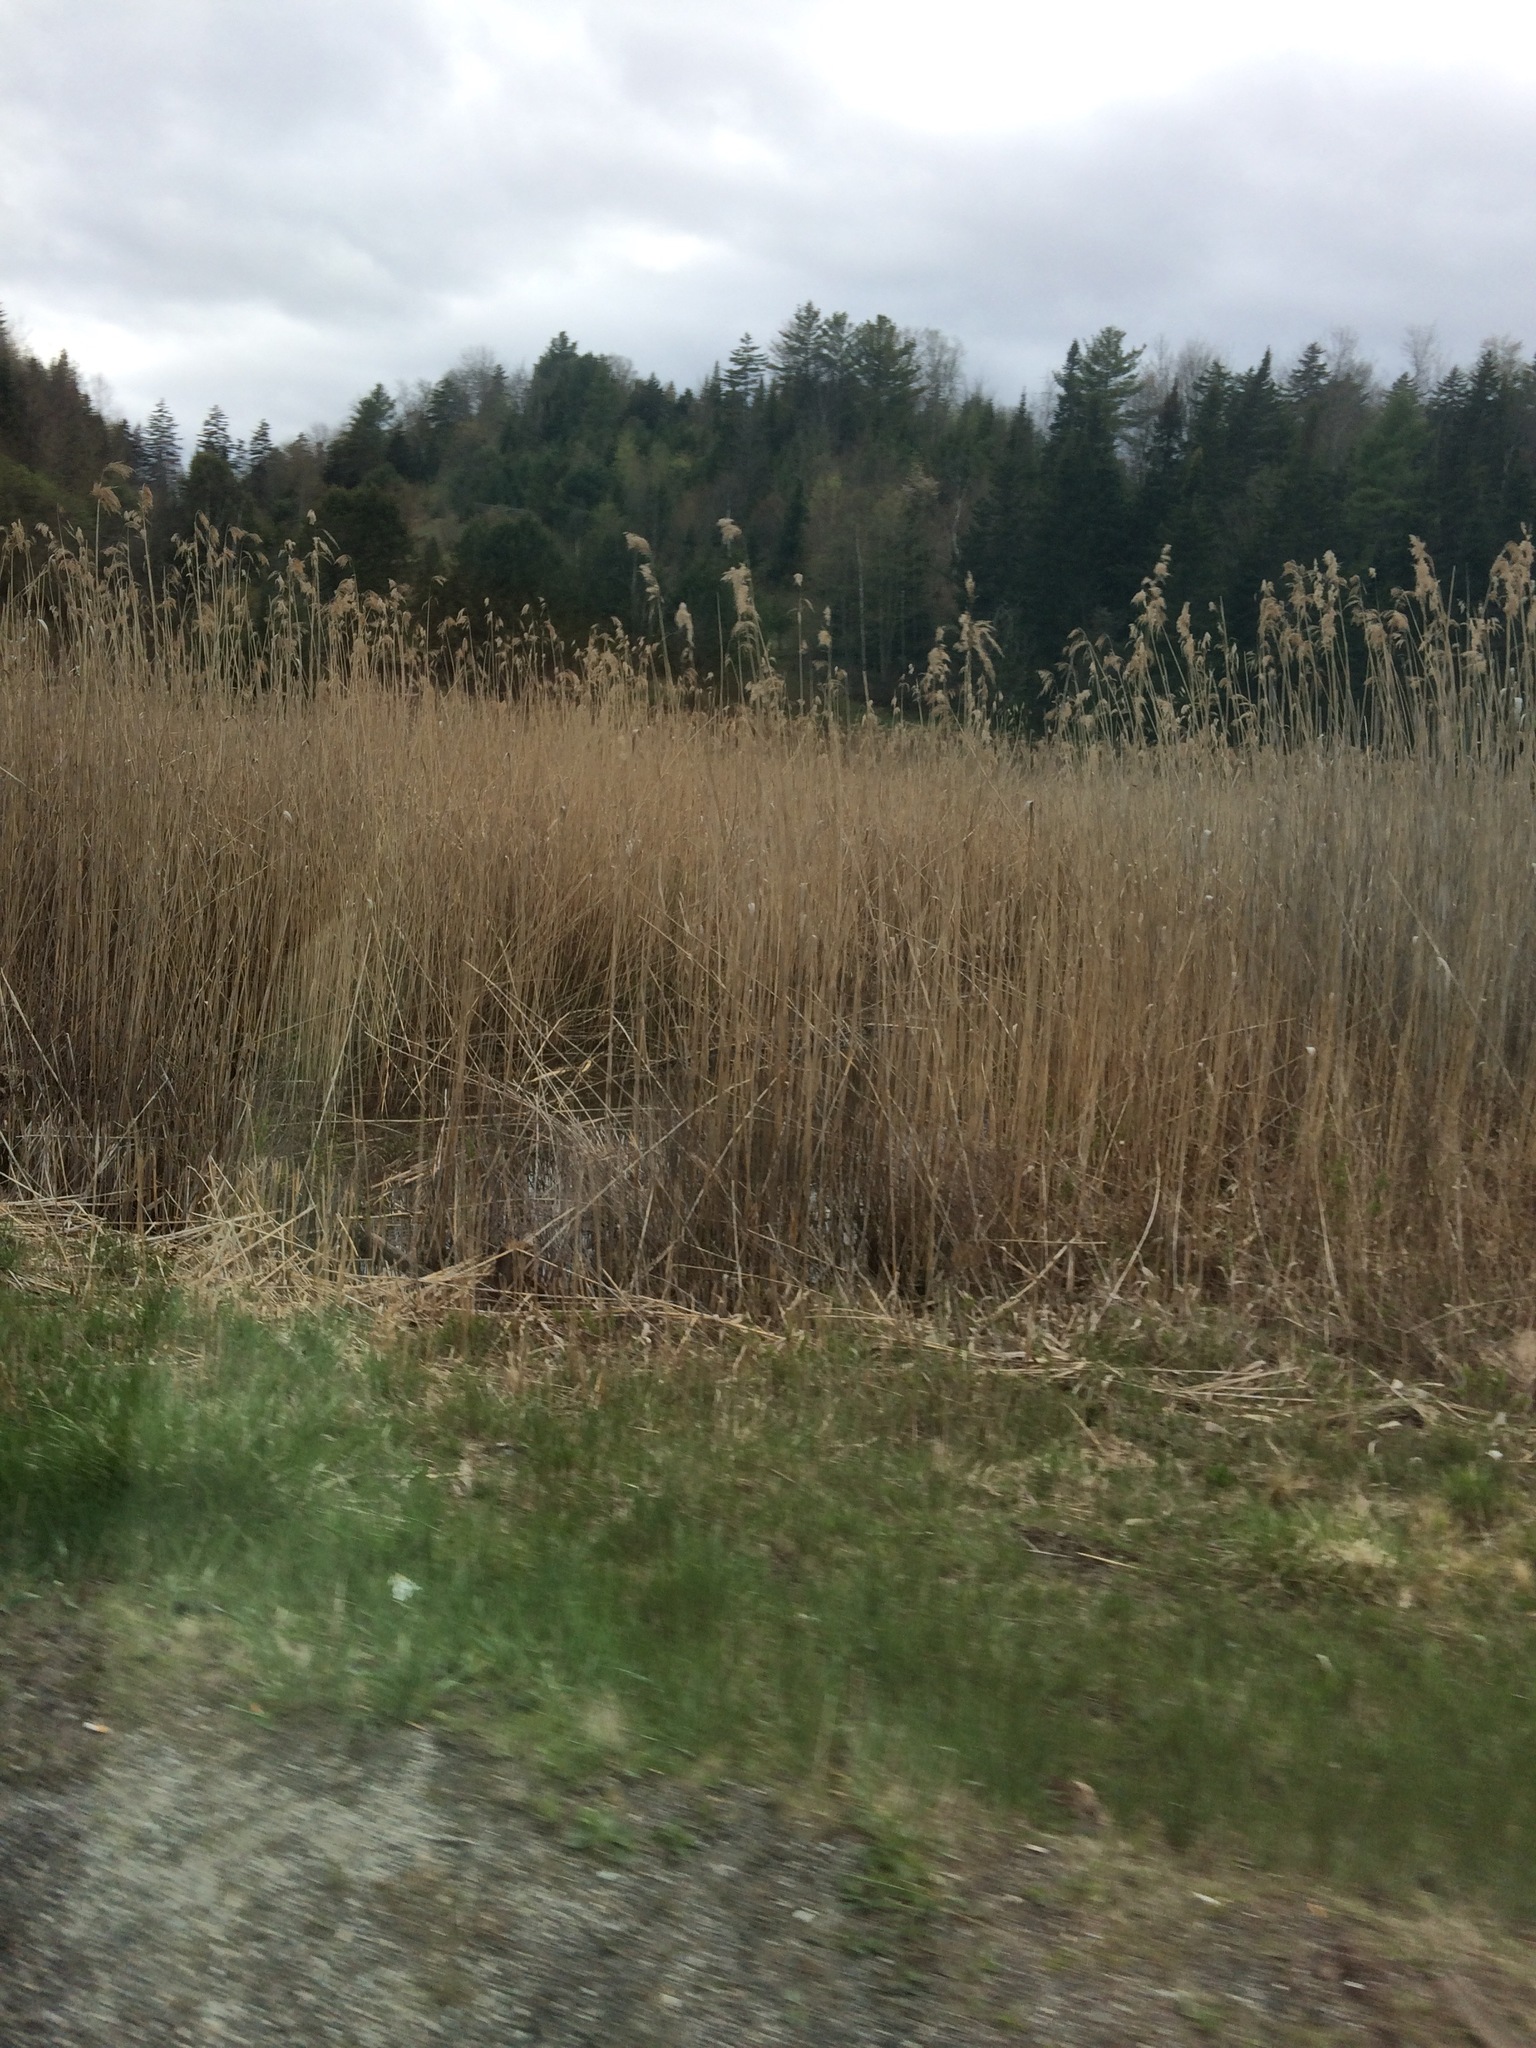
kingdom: Plantae
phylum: Tracheophyta
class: Liliopsida
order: Poales
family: Poaceae
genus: Phragmites
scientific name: Phragmites australis
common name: Common reed
